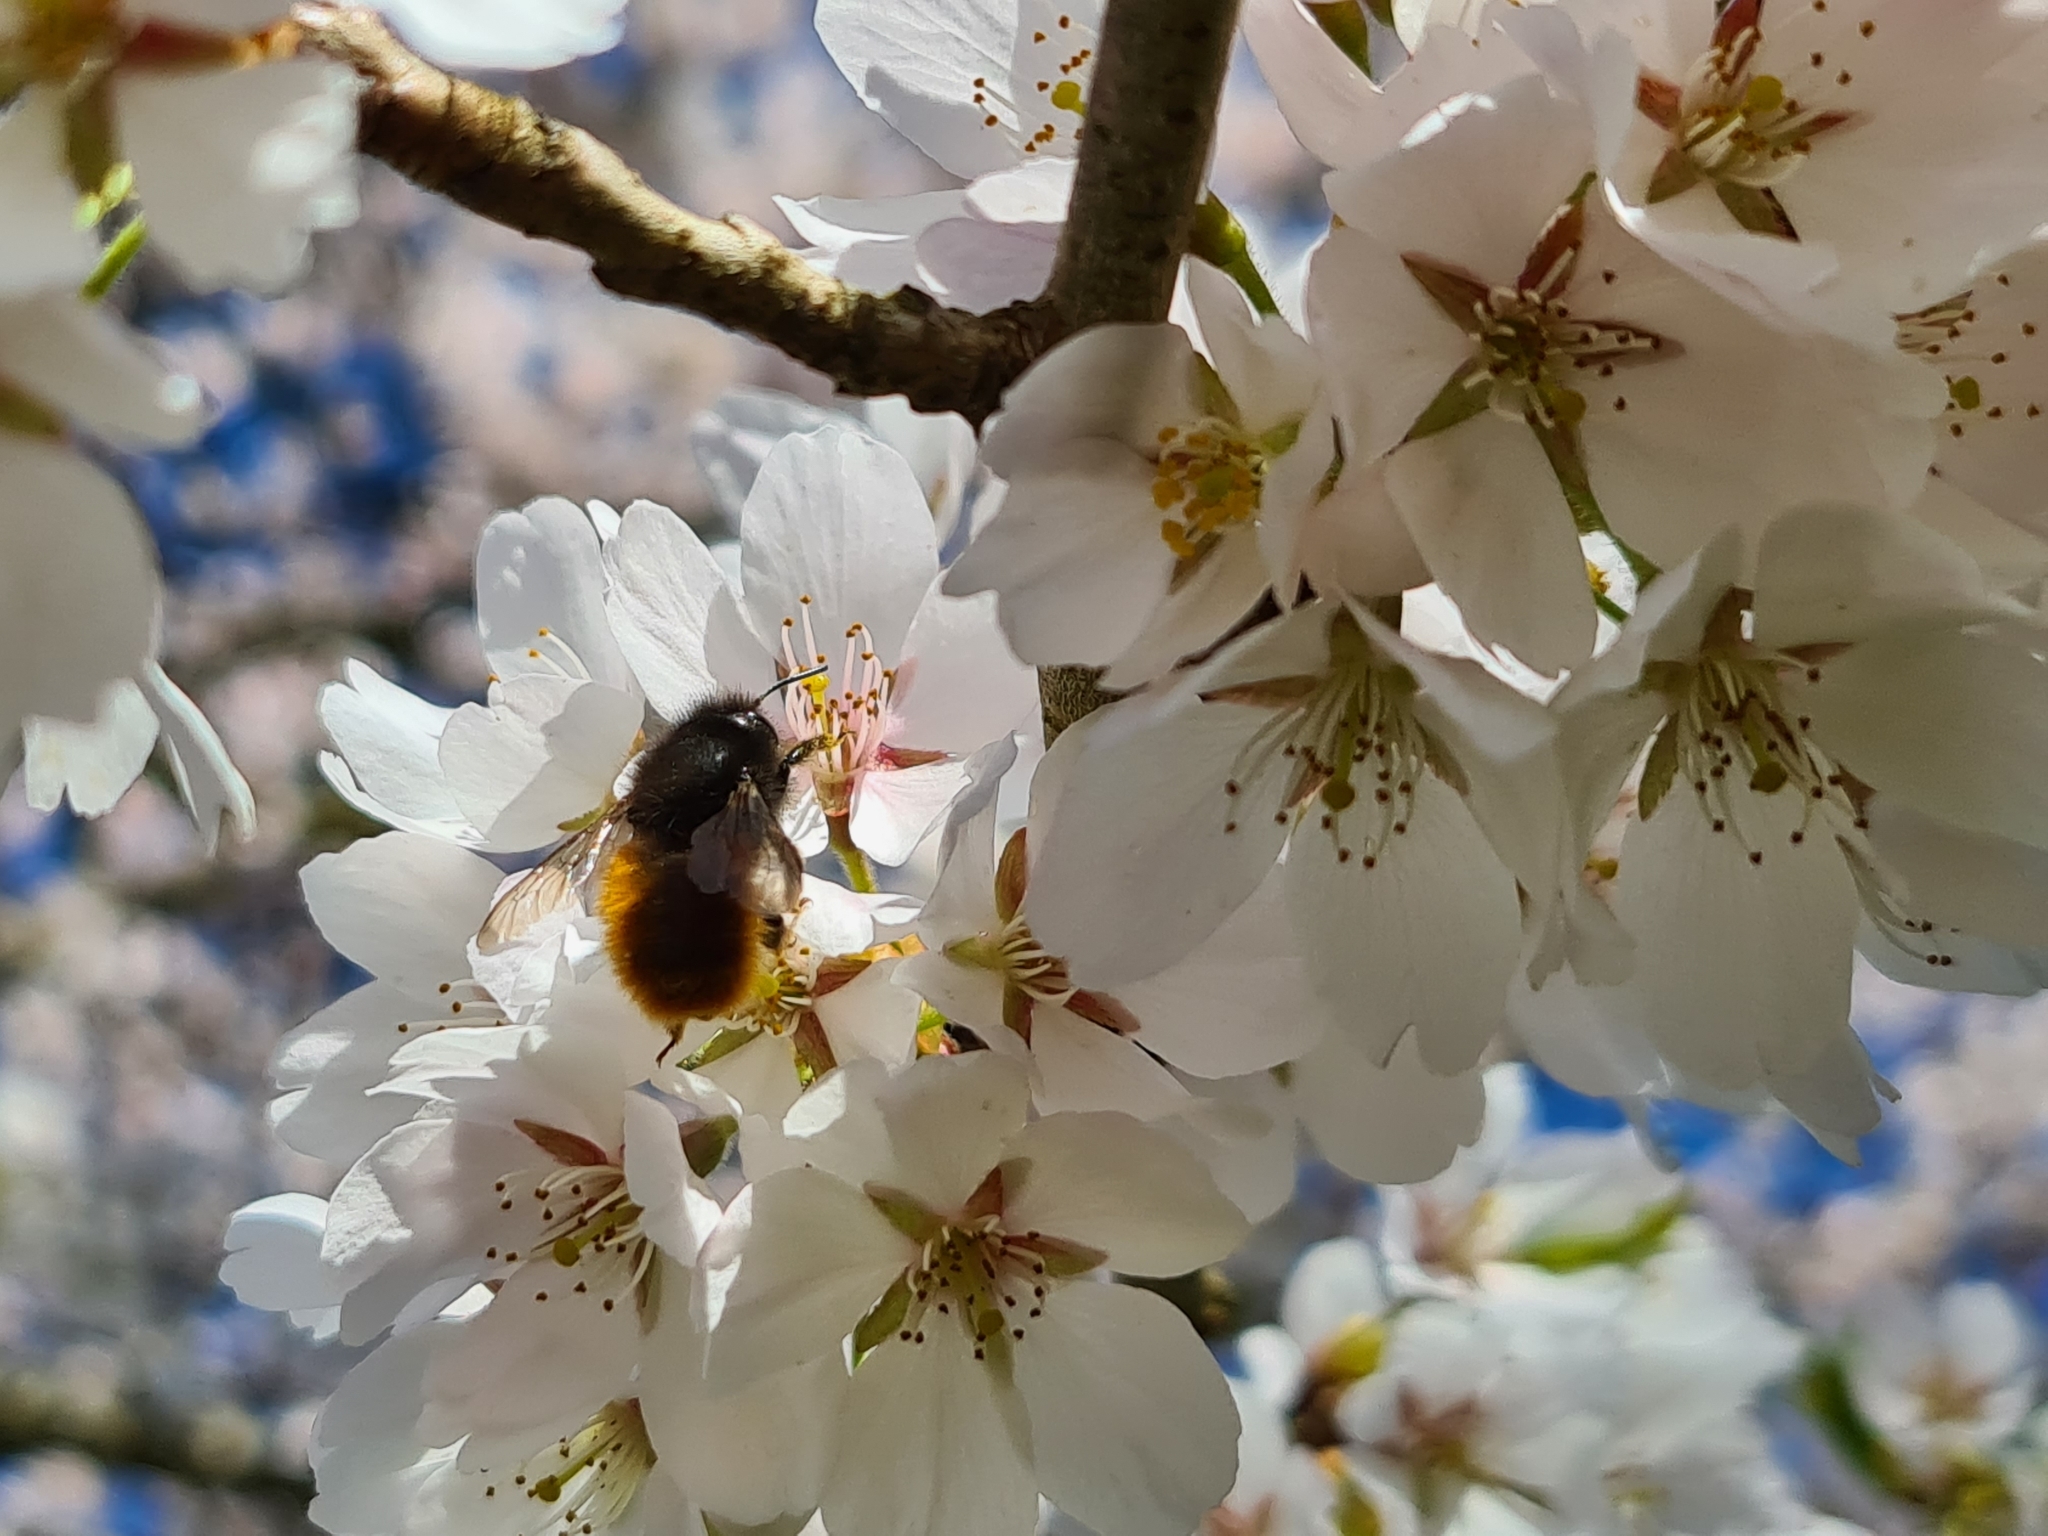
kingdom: Animalia
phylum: Arthropoda
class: Insecta
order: Hymenoptera
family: Megachilidae
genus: Osmia
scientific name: Osmia cornuta
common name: Mason bee
